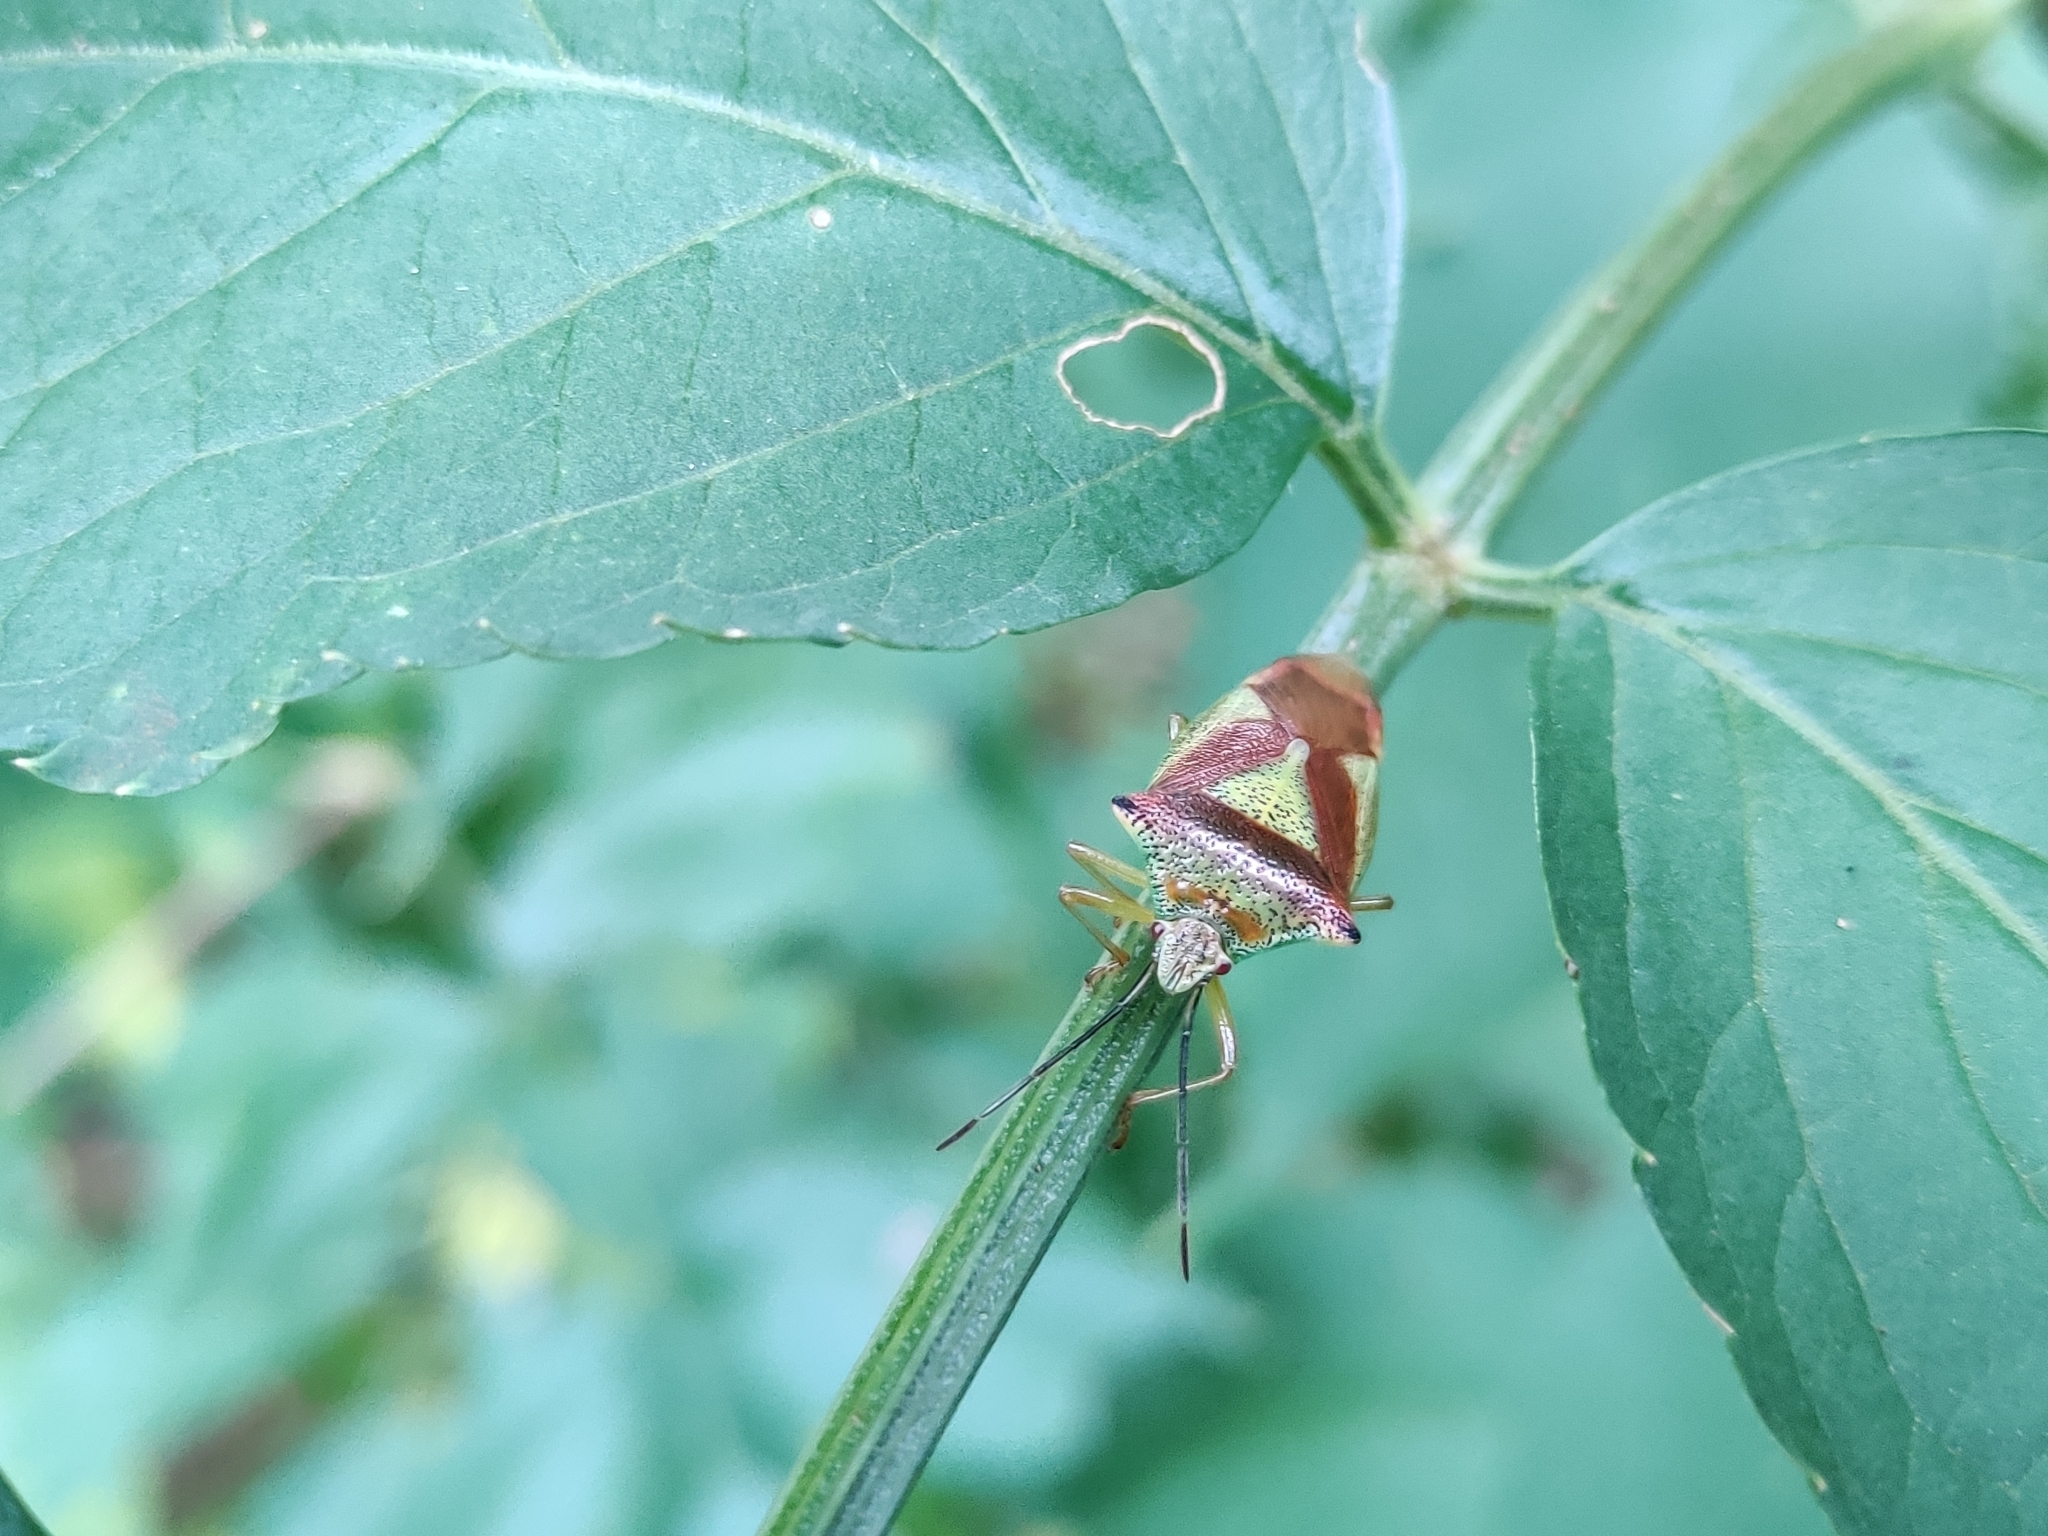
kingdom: Animalia
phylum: Arthropoda
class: Insecta
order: Hemiptera
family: Acanthosomatidae
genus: Acanthosoma
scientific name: Acanthosoma haemorrhoidale
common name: Hawthorn shieldbug
